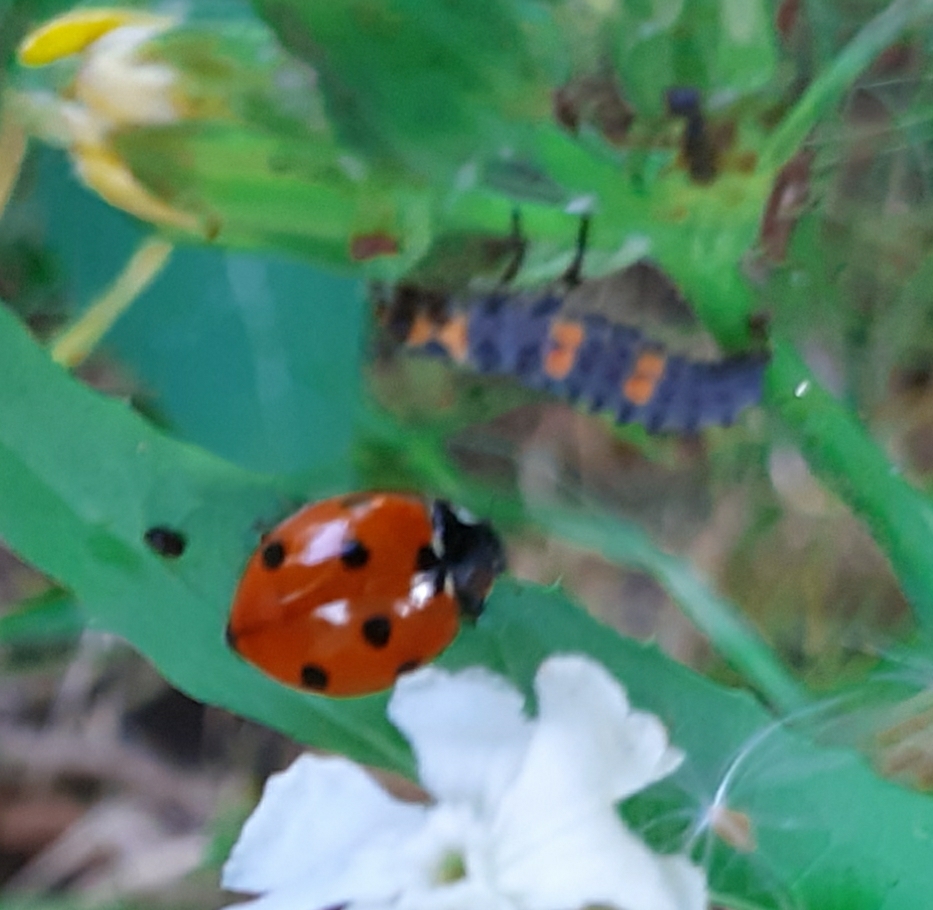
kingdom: Animalia
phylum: Arthropoda
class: Insecta
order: Coleoptera
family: Coccinellidae
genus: Coccinella
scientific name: Coccinella septempunctata
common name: Sevenspotted lady beetle
